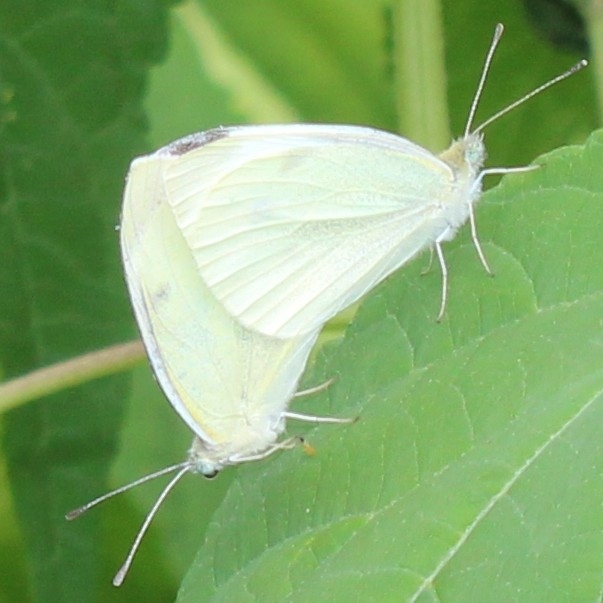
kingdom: Animalia
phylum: Arthropoda
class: Insecta
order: Lepidoptera
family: Pieridae
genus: Pieris
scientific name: Pieris rapae
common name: Small white
